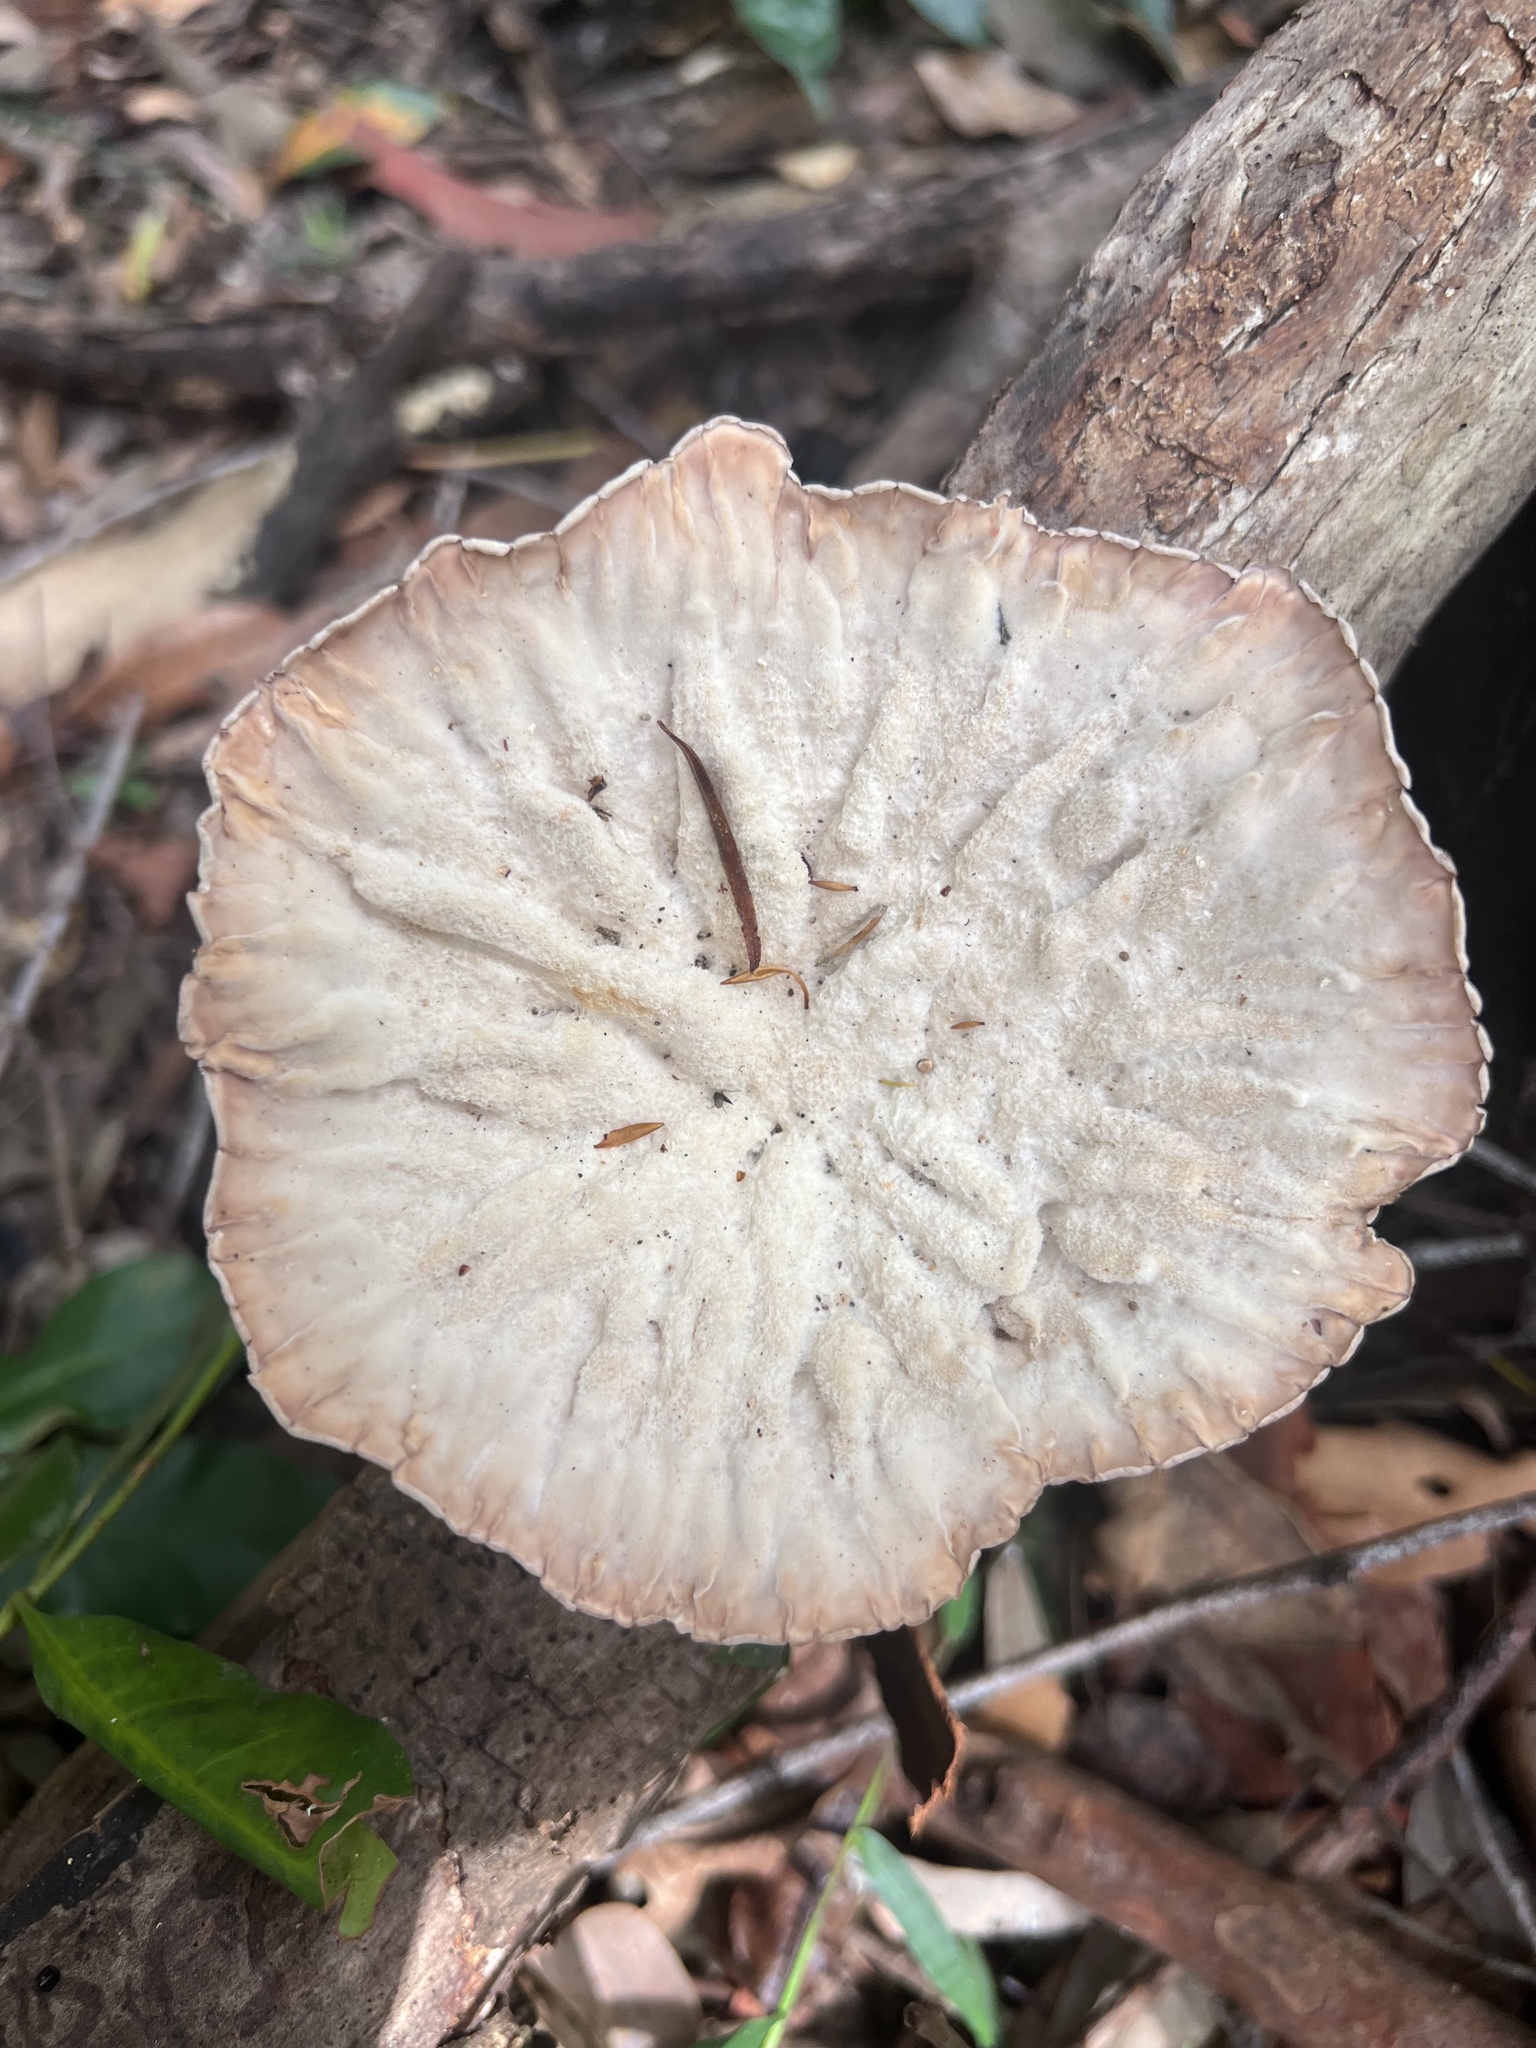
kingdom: Fungi
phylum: Basidiomycota
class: Agaricomycetes
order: Polyporales
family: Panaceae
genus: Cymatoderma
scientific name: Cymatoderma elegans
